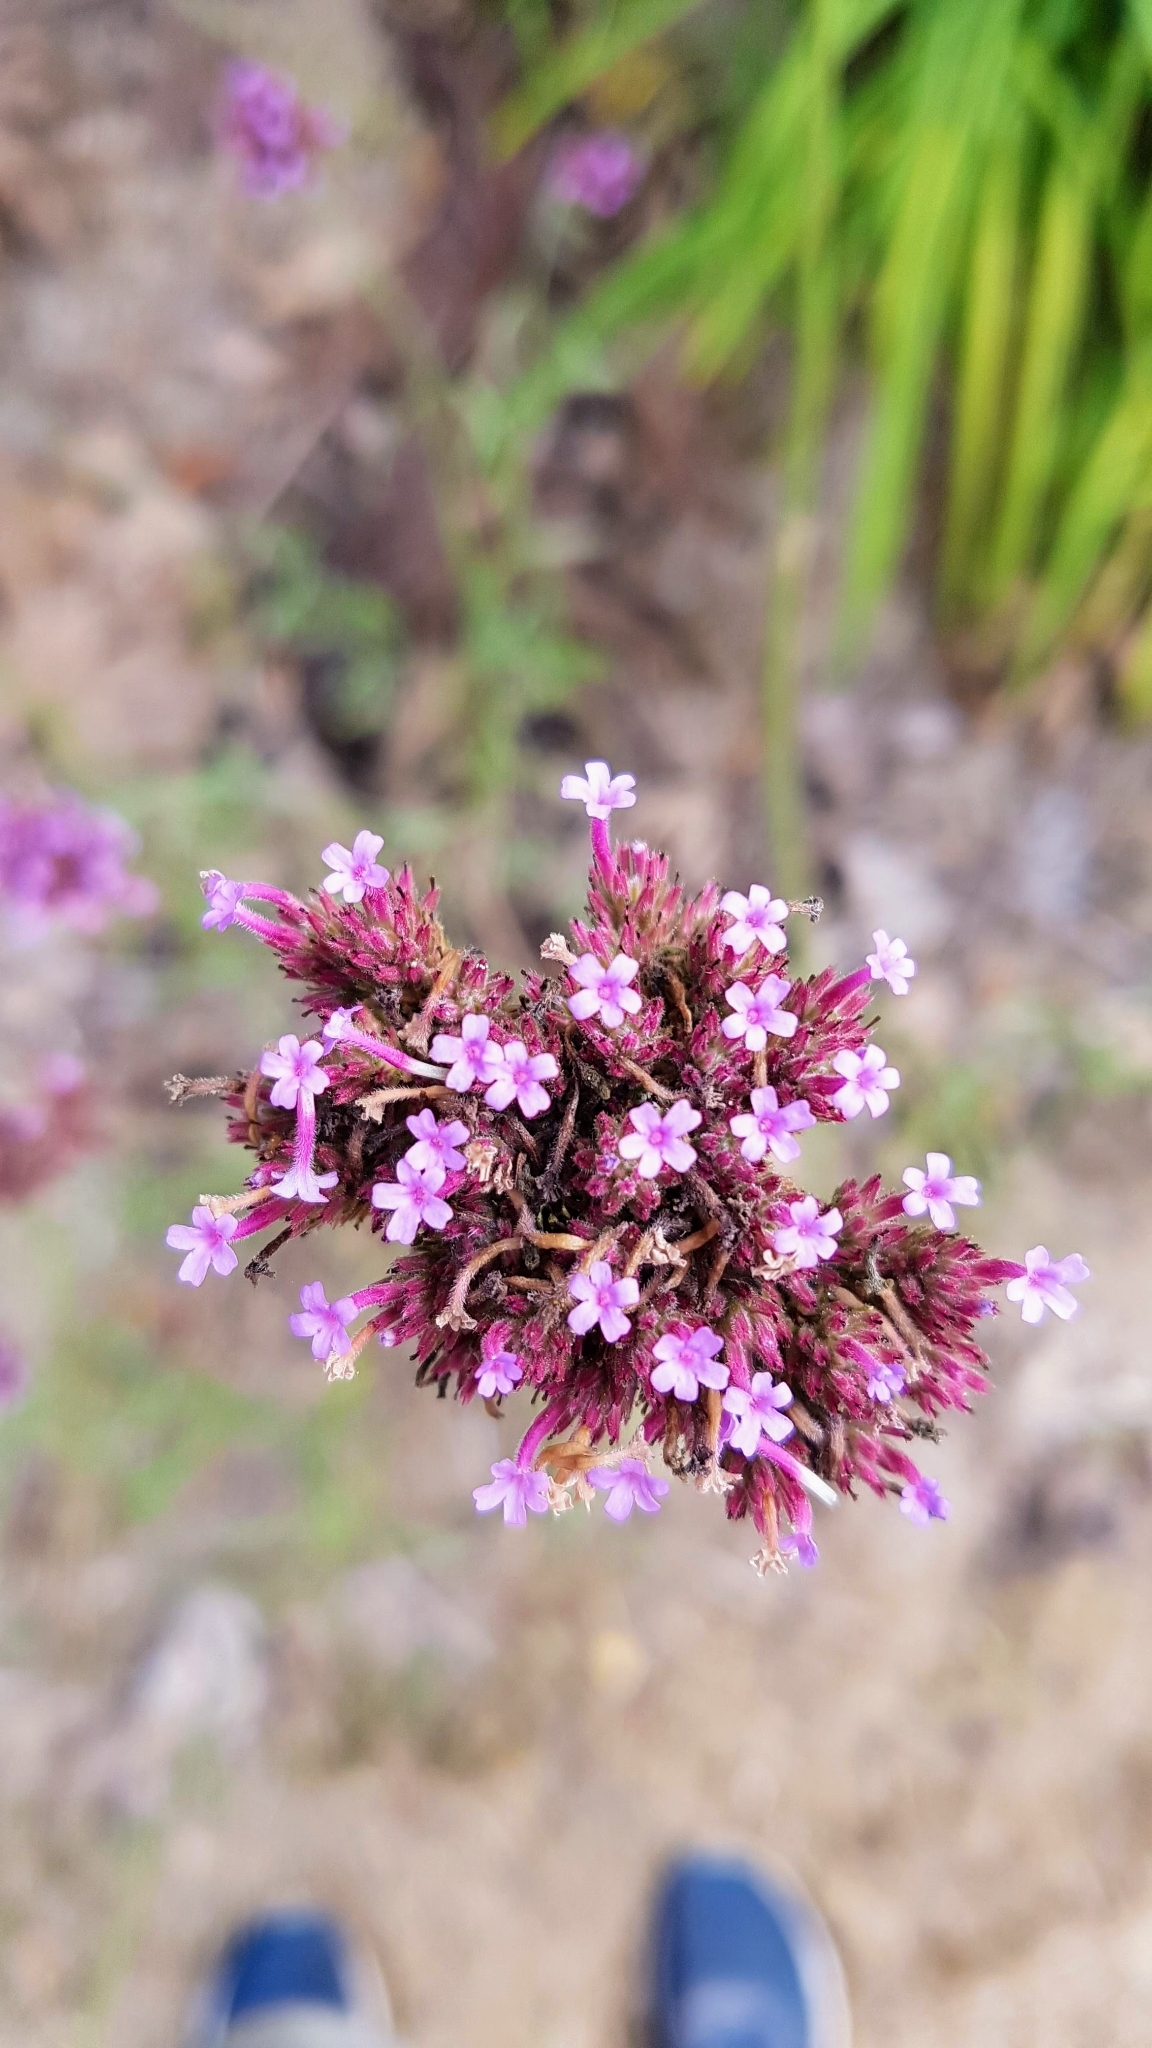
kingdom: Plantae
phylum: Tracheophyta
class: Magnoliopsida
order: Lamiales
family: Verbenaceae
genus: Verbena
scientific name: Verbena bonariensis
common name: Purpletop vervain
